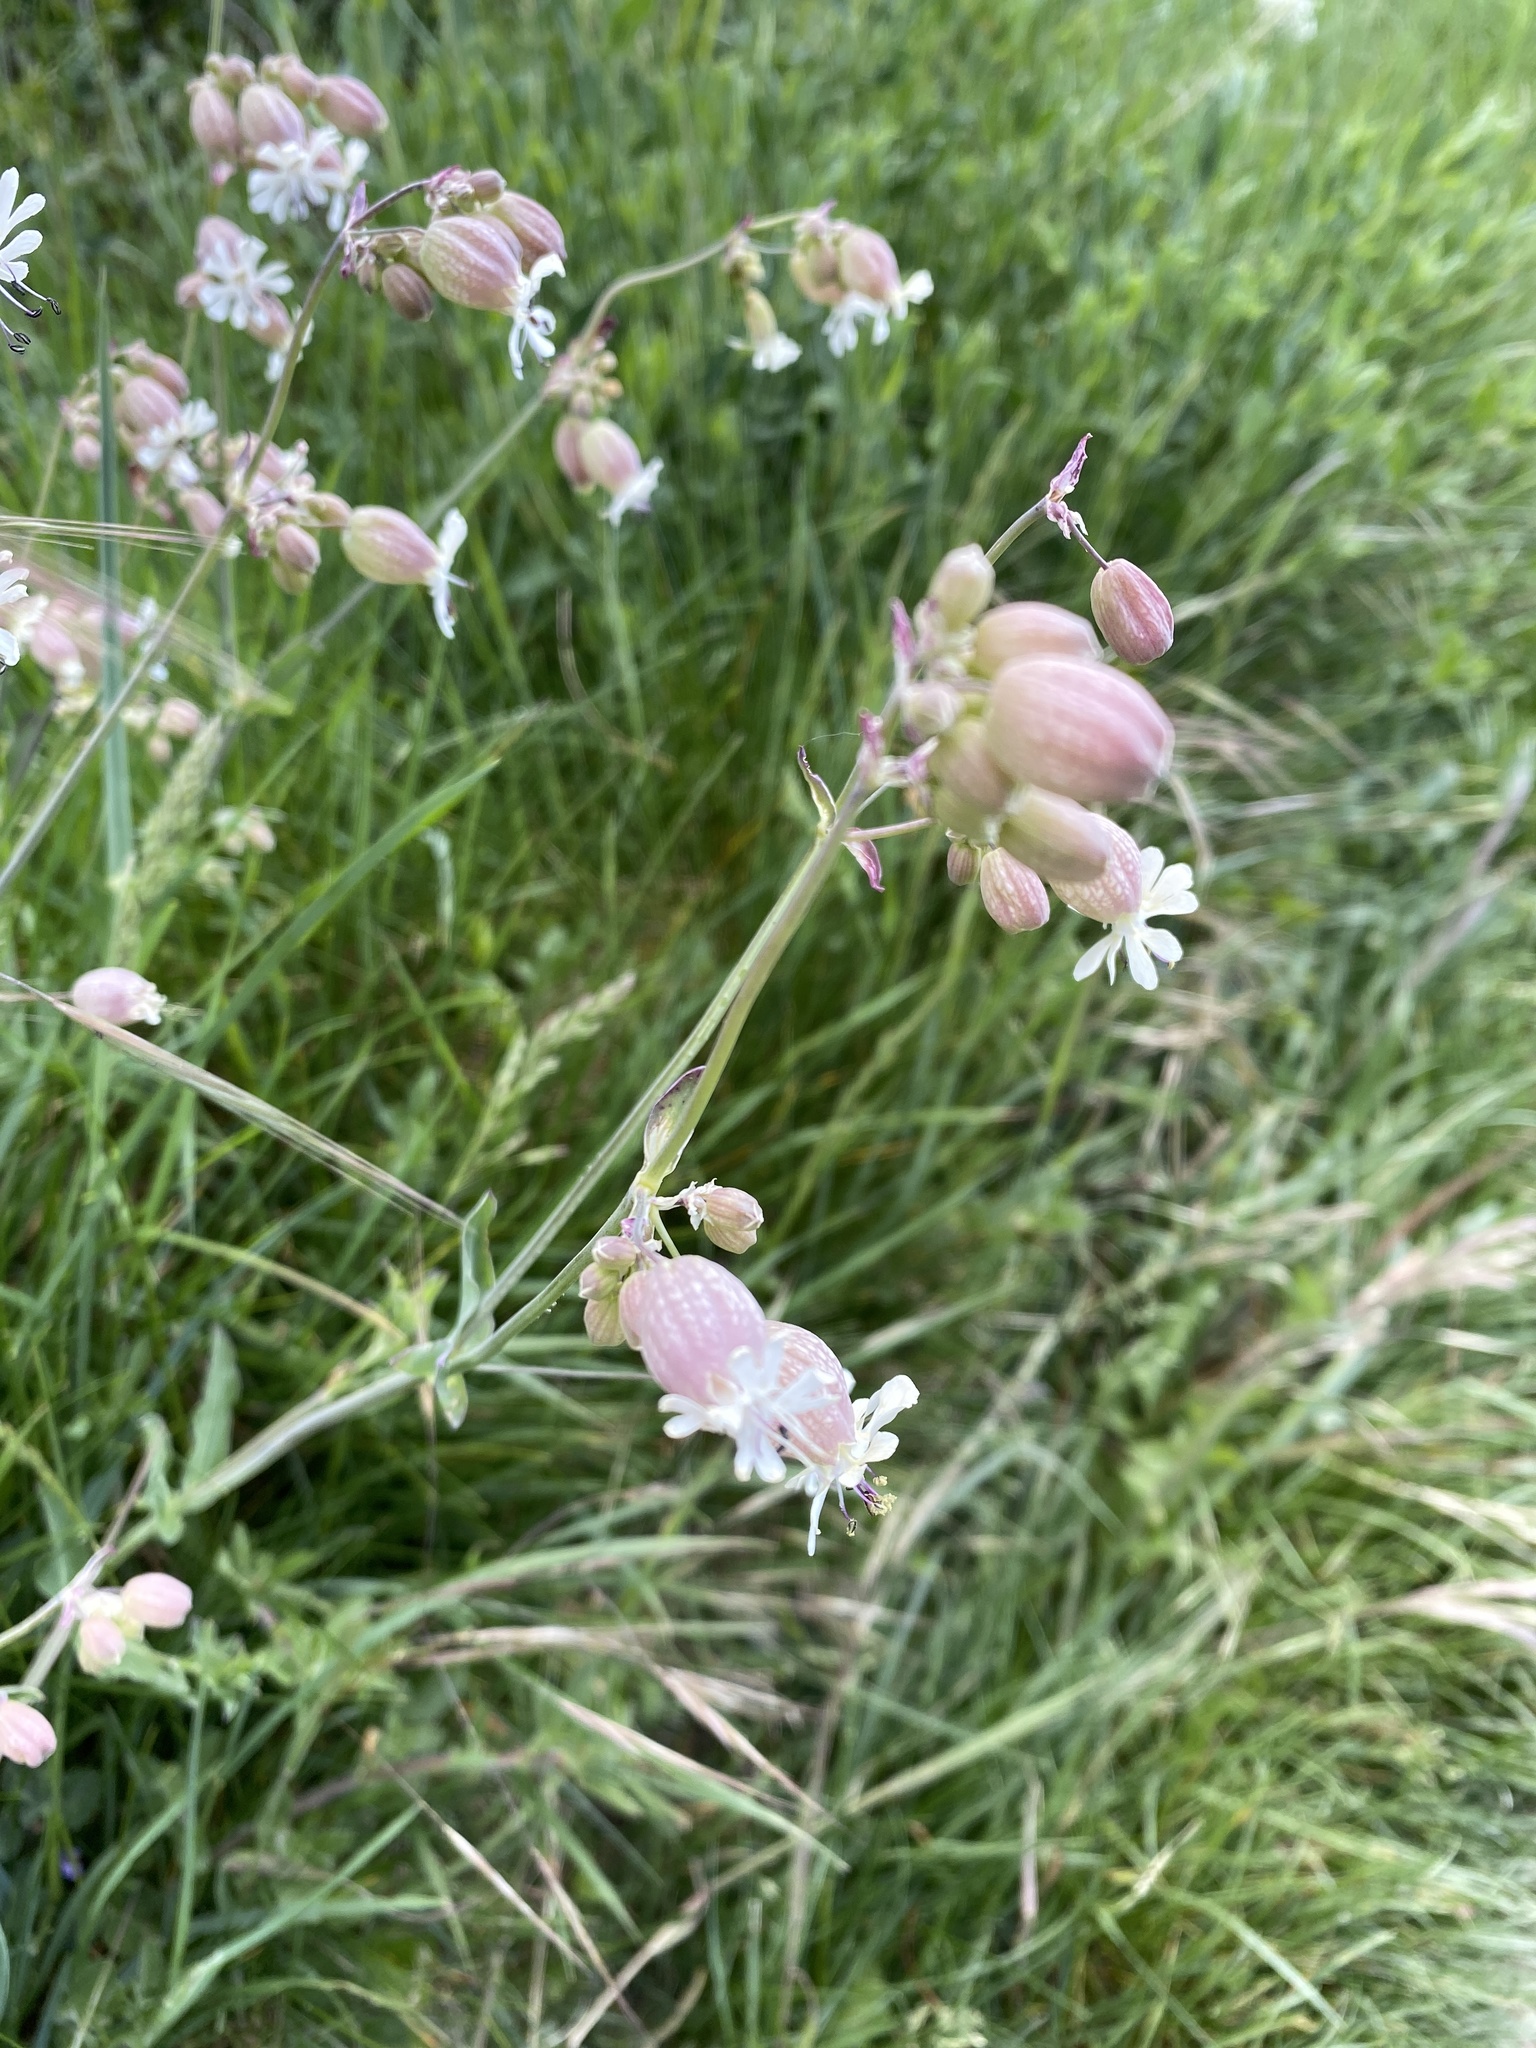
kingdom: Plantae
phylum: Tracheophyta
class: Magnoliopsida
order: Caryophyllales
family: Caryophyllaceae
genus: Silene
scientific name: Silene vulgaris
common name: Bladder campion
